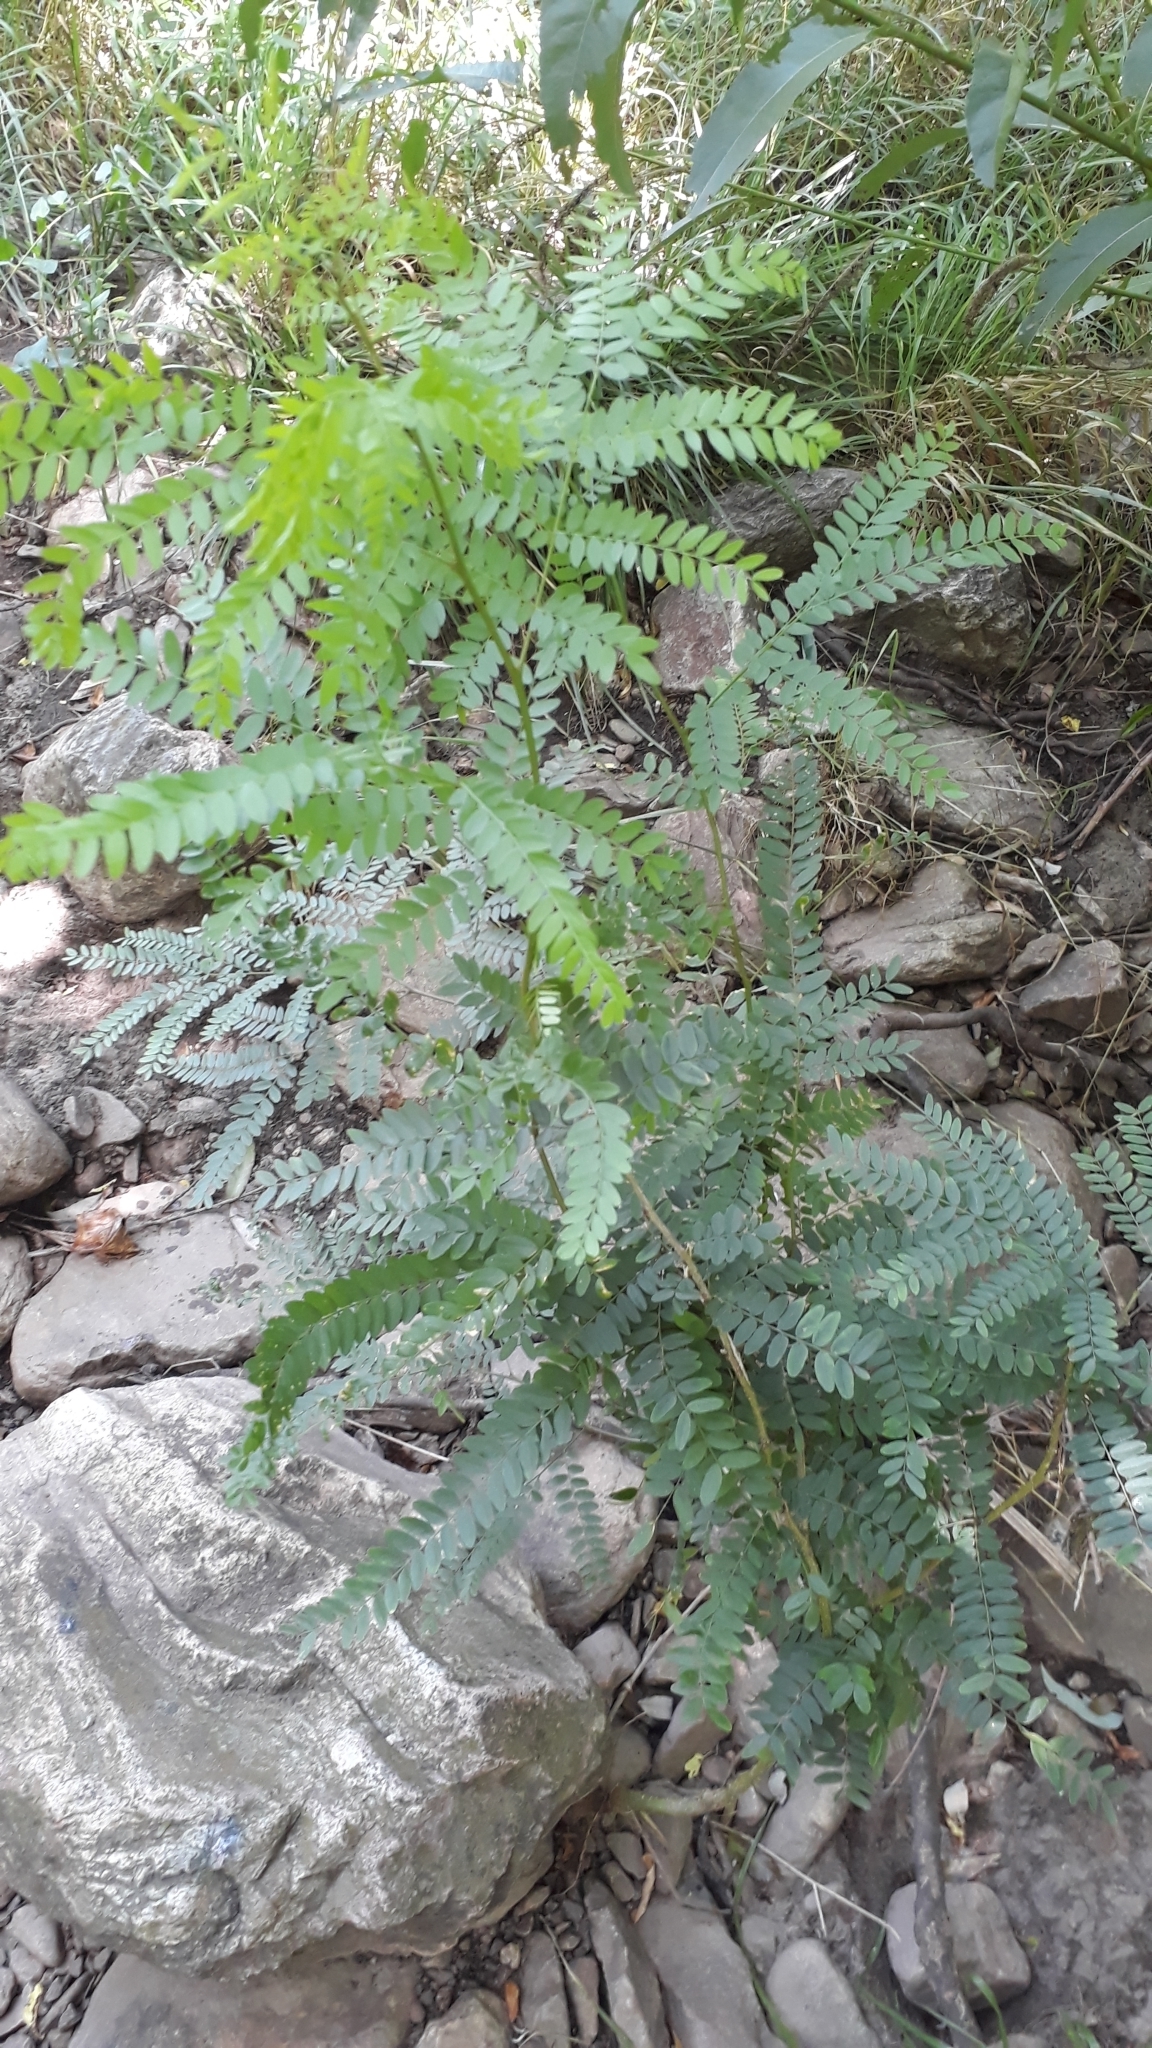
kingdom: Plantae
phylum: Tracheophyta
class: Magnoliopsida
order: Fabales
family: Fabaceae
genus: Gleditsia
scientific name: Gleditsia triacanthos
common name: Common honeylocust
